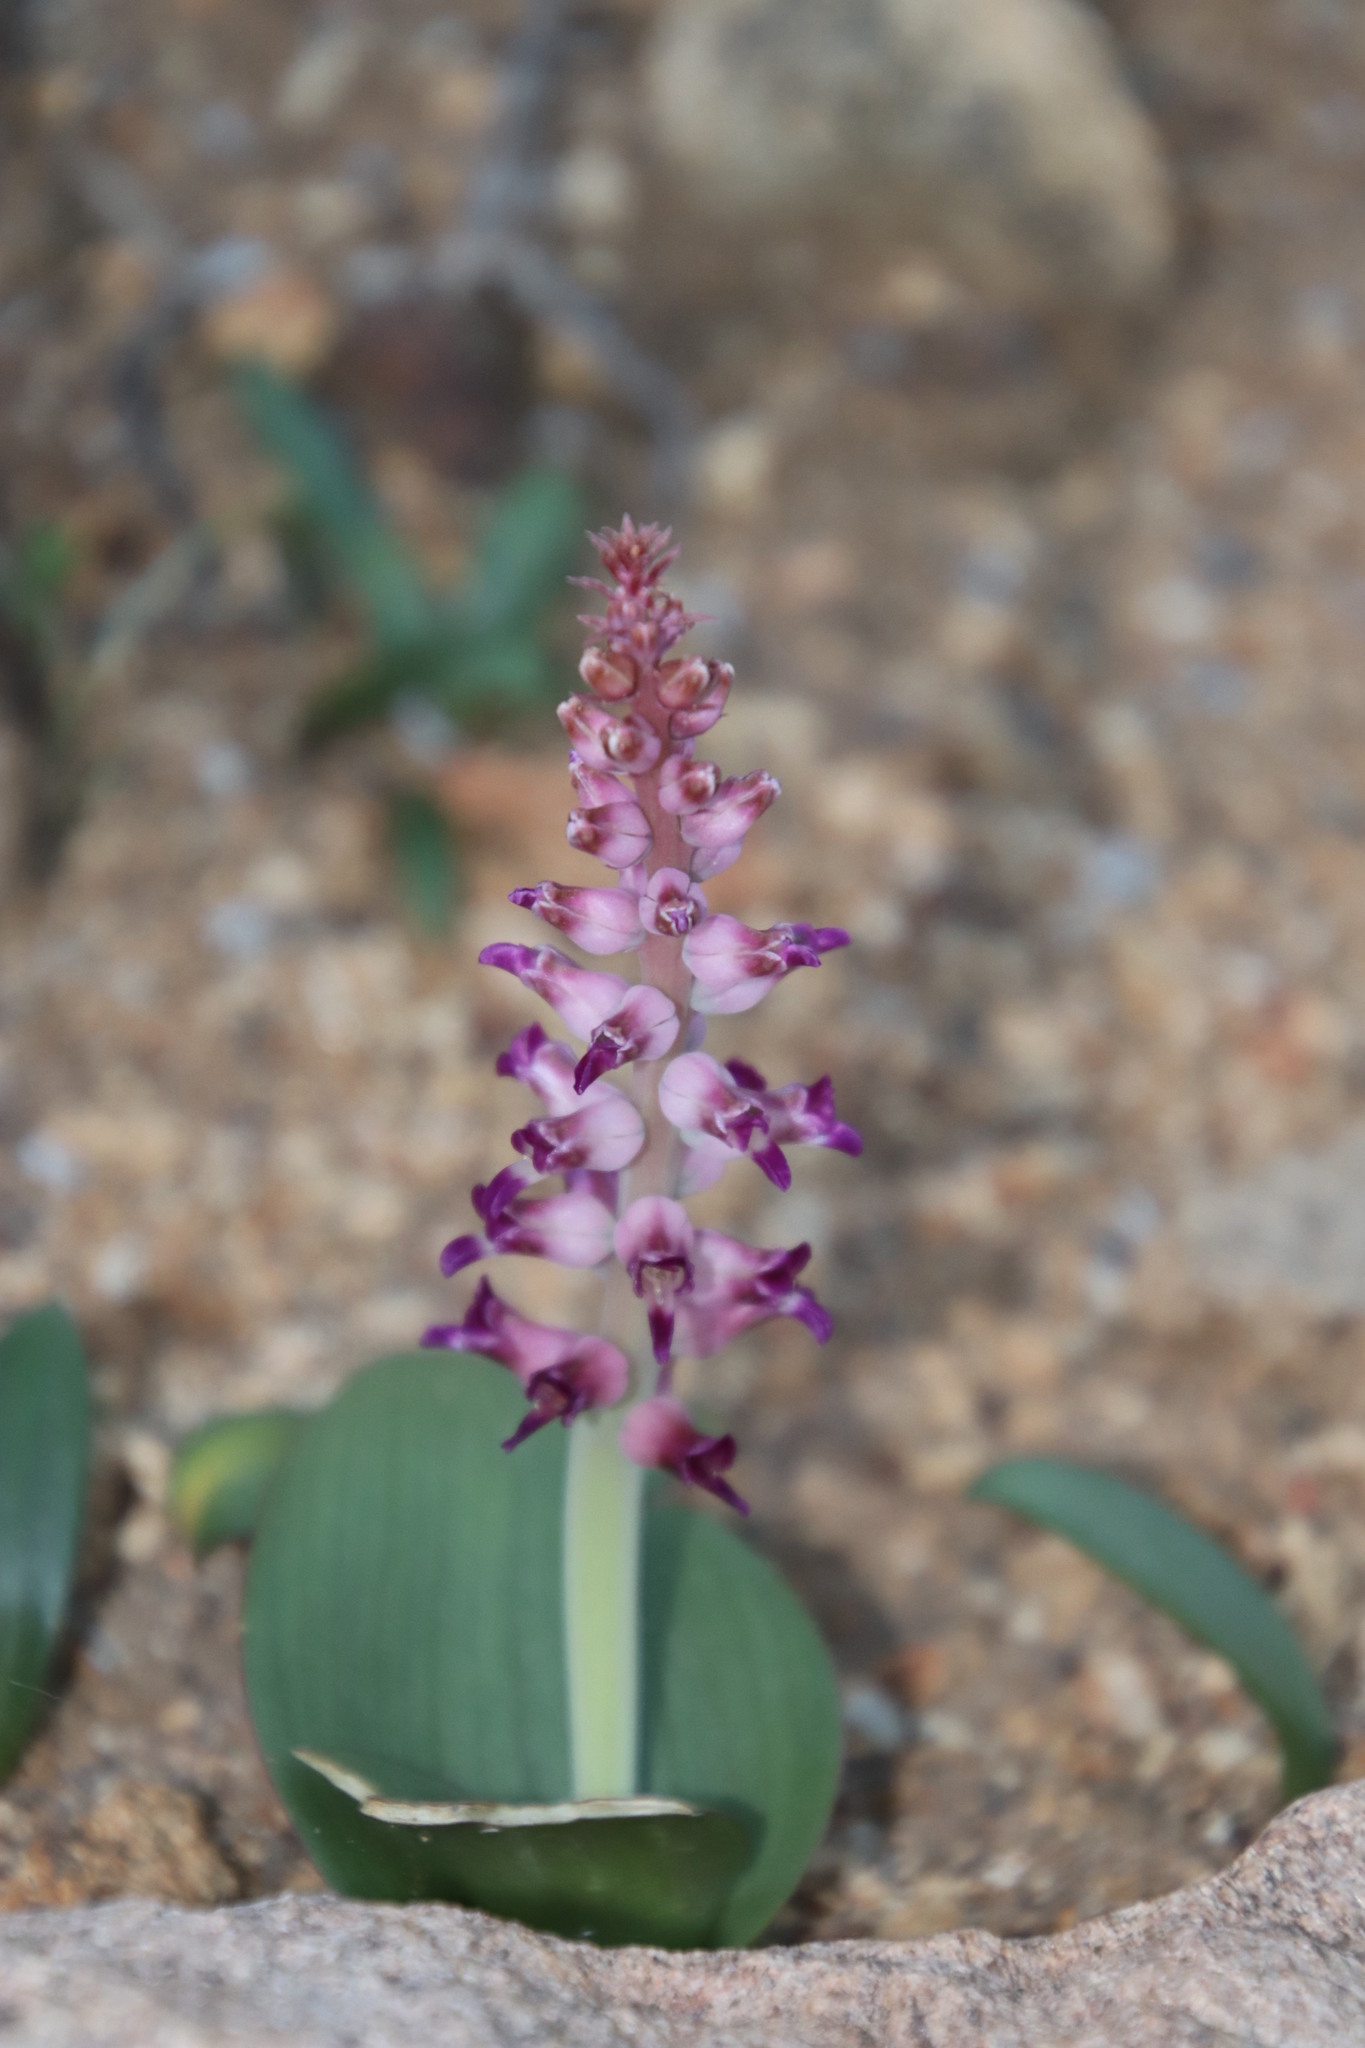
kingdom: Plantae
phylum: Tracheophyta
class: Liliopsida
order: Asparagales
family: Asparagaceae
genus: Lachenalia
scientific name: Lachenalia carnosa
